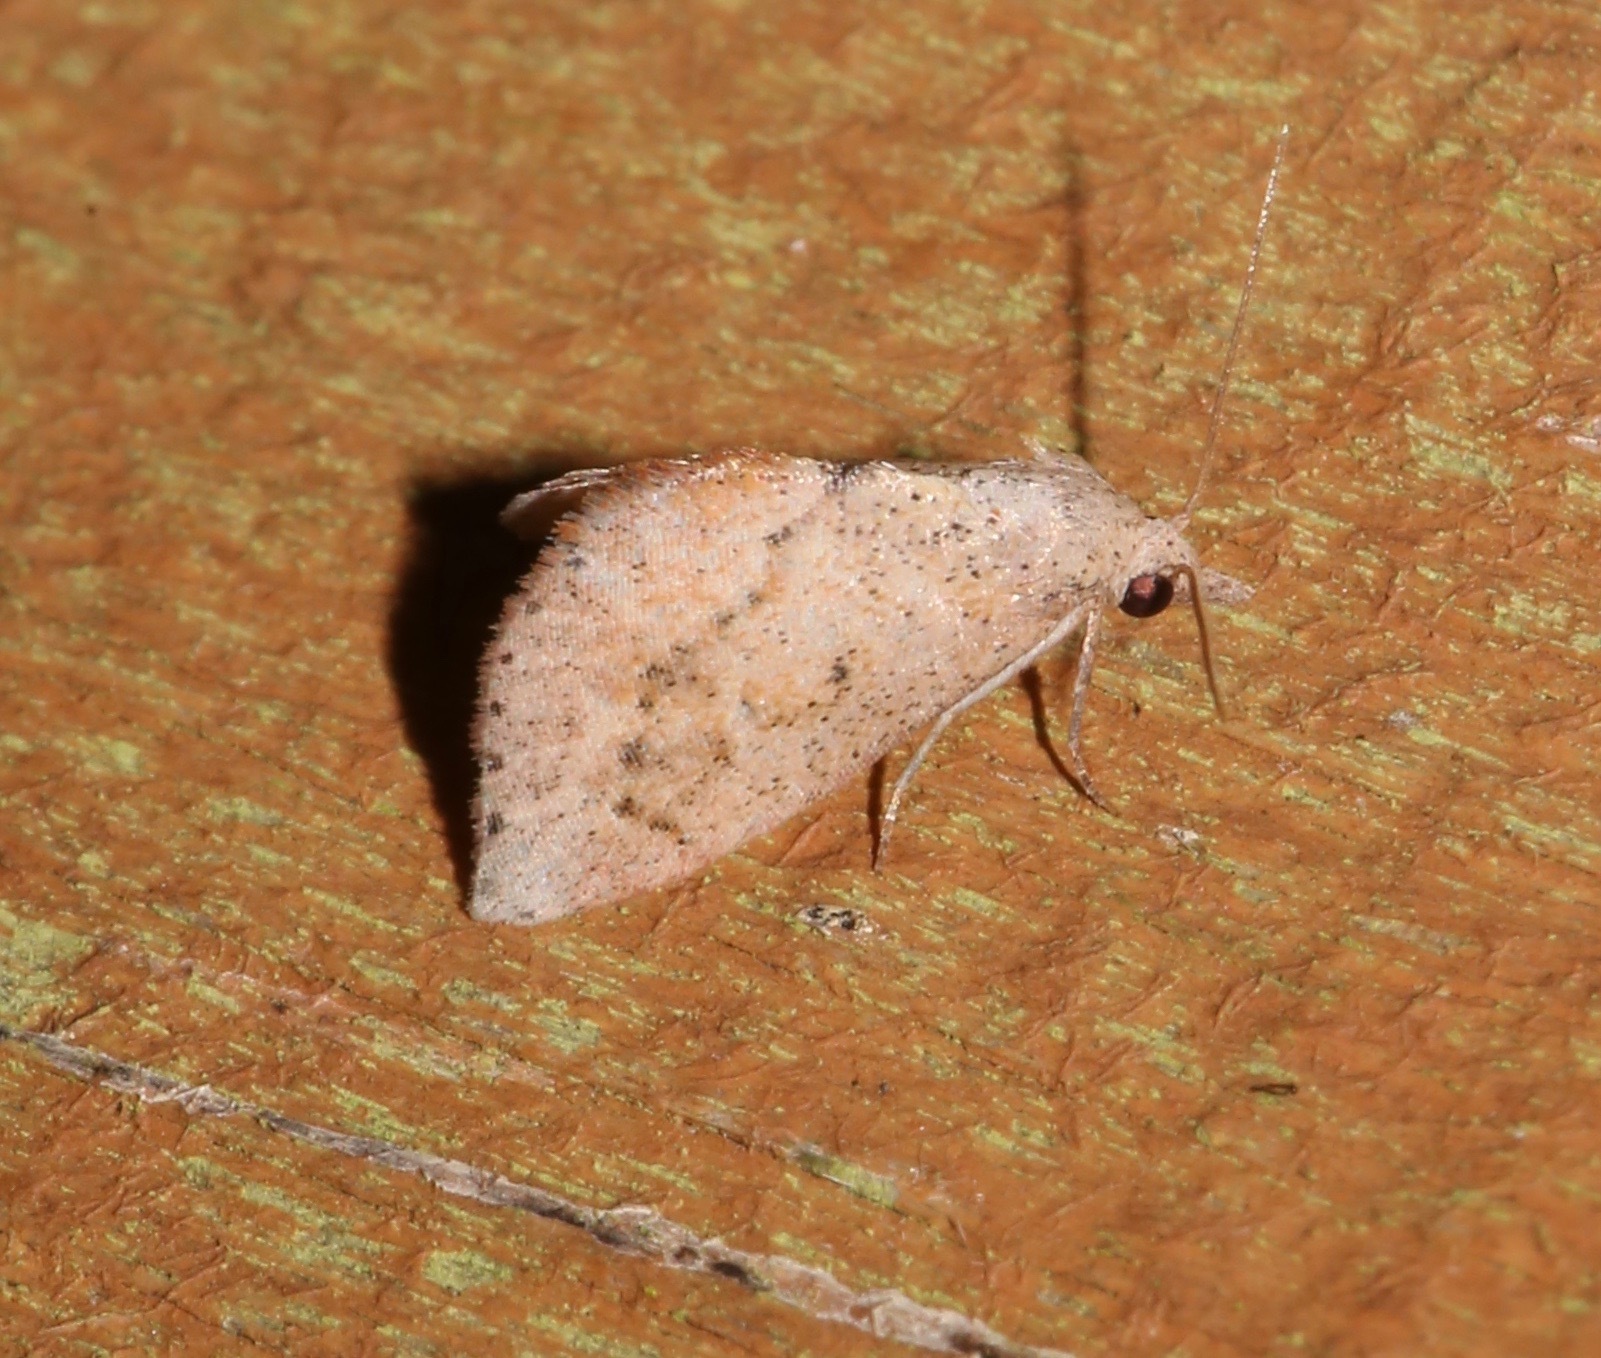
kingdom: Animalia
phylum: Arthropoda
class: Insecta
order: Lepidoptera
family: Noctuidae
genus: Proroblemma
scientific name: Proroblemma testa
